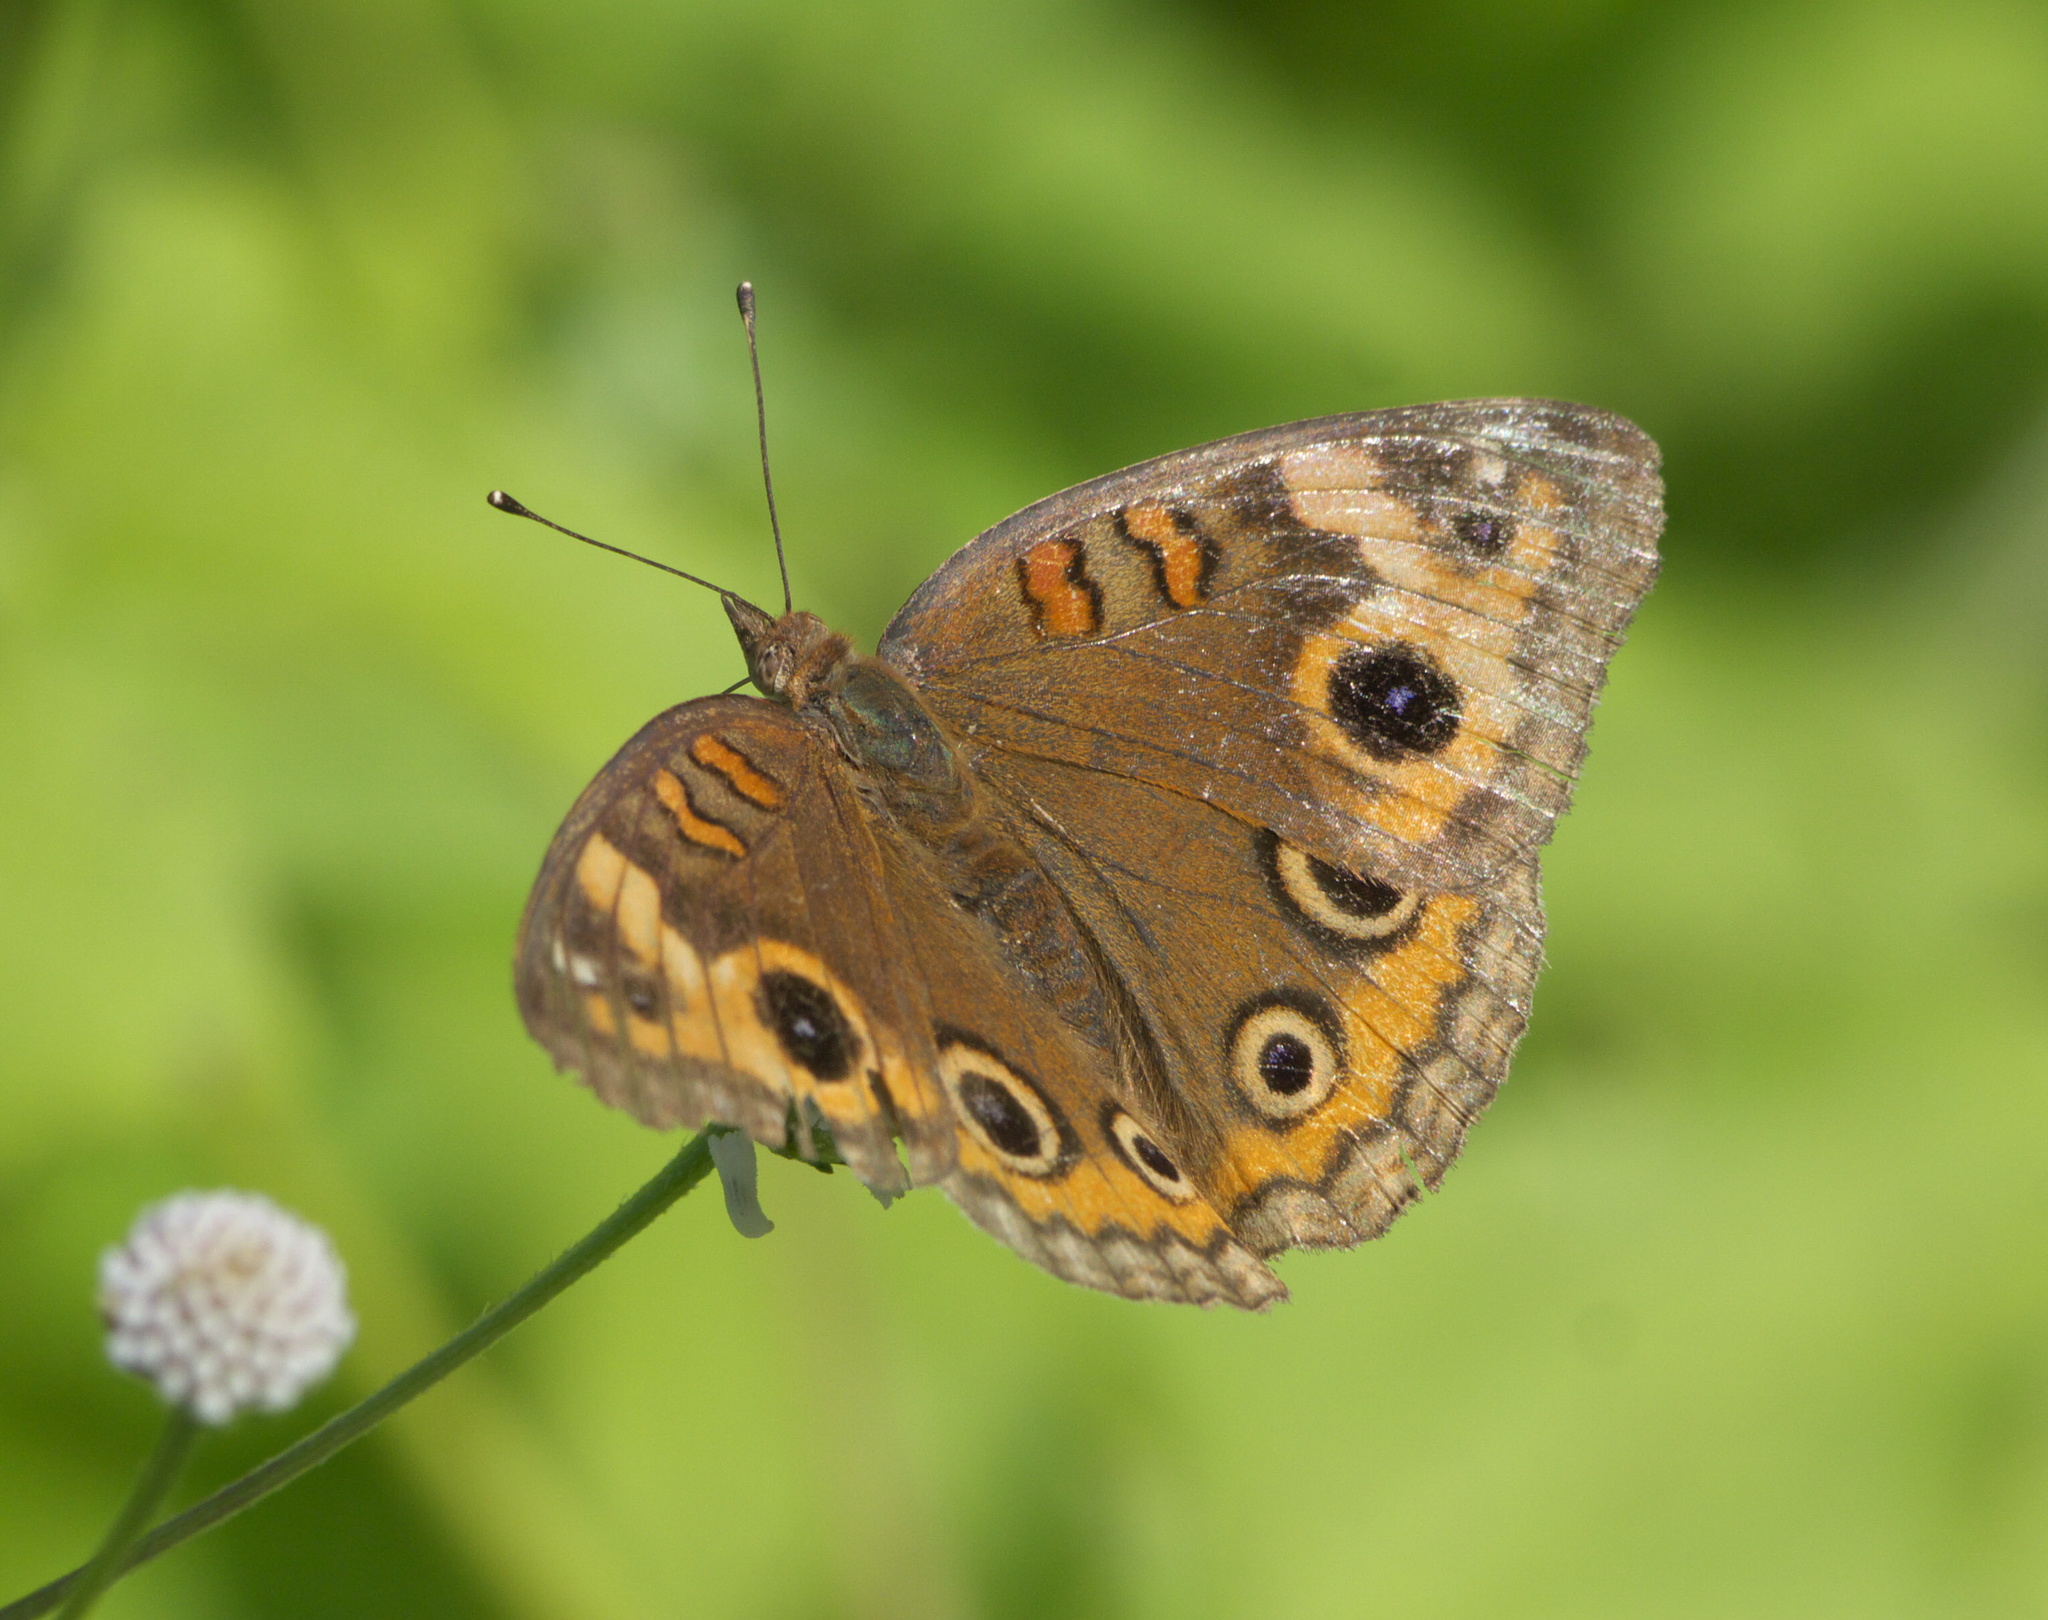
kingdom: Animalia
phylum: Arthropoda
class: Insecta
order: Lepidoptera
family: Nymphalidae
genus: Junonia
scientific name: Junonia neildi
